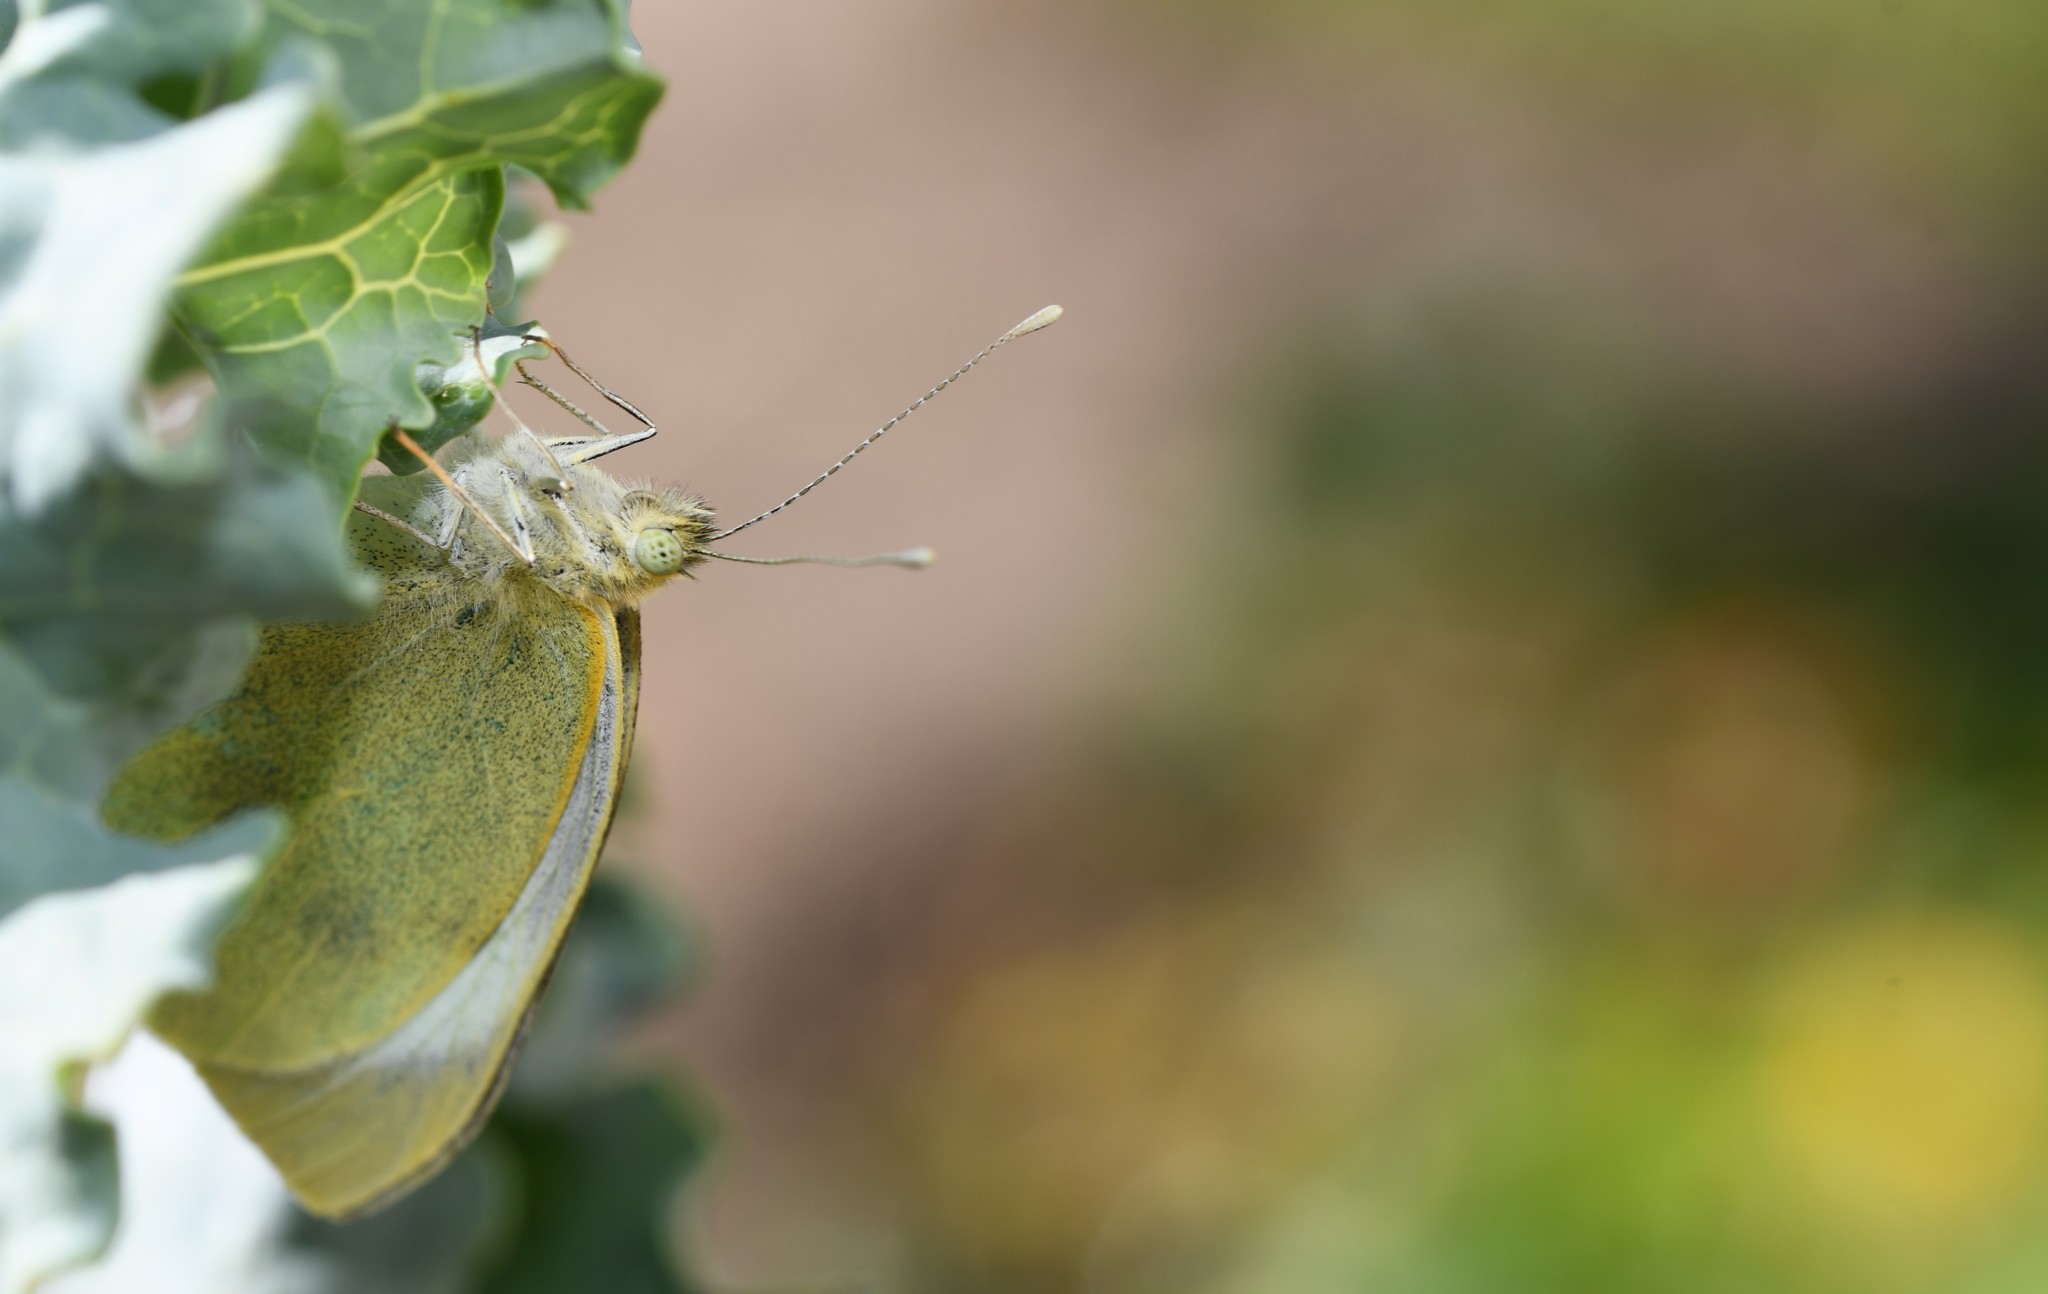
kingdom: Animalia
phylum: Arthropoda
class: Insecta
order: Lepidoptera
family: Pieridae
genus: Pieris
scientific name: Pieris brassicae
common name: Large white
